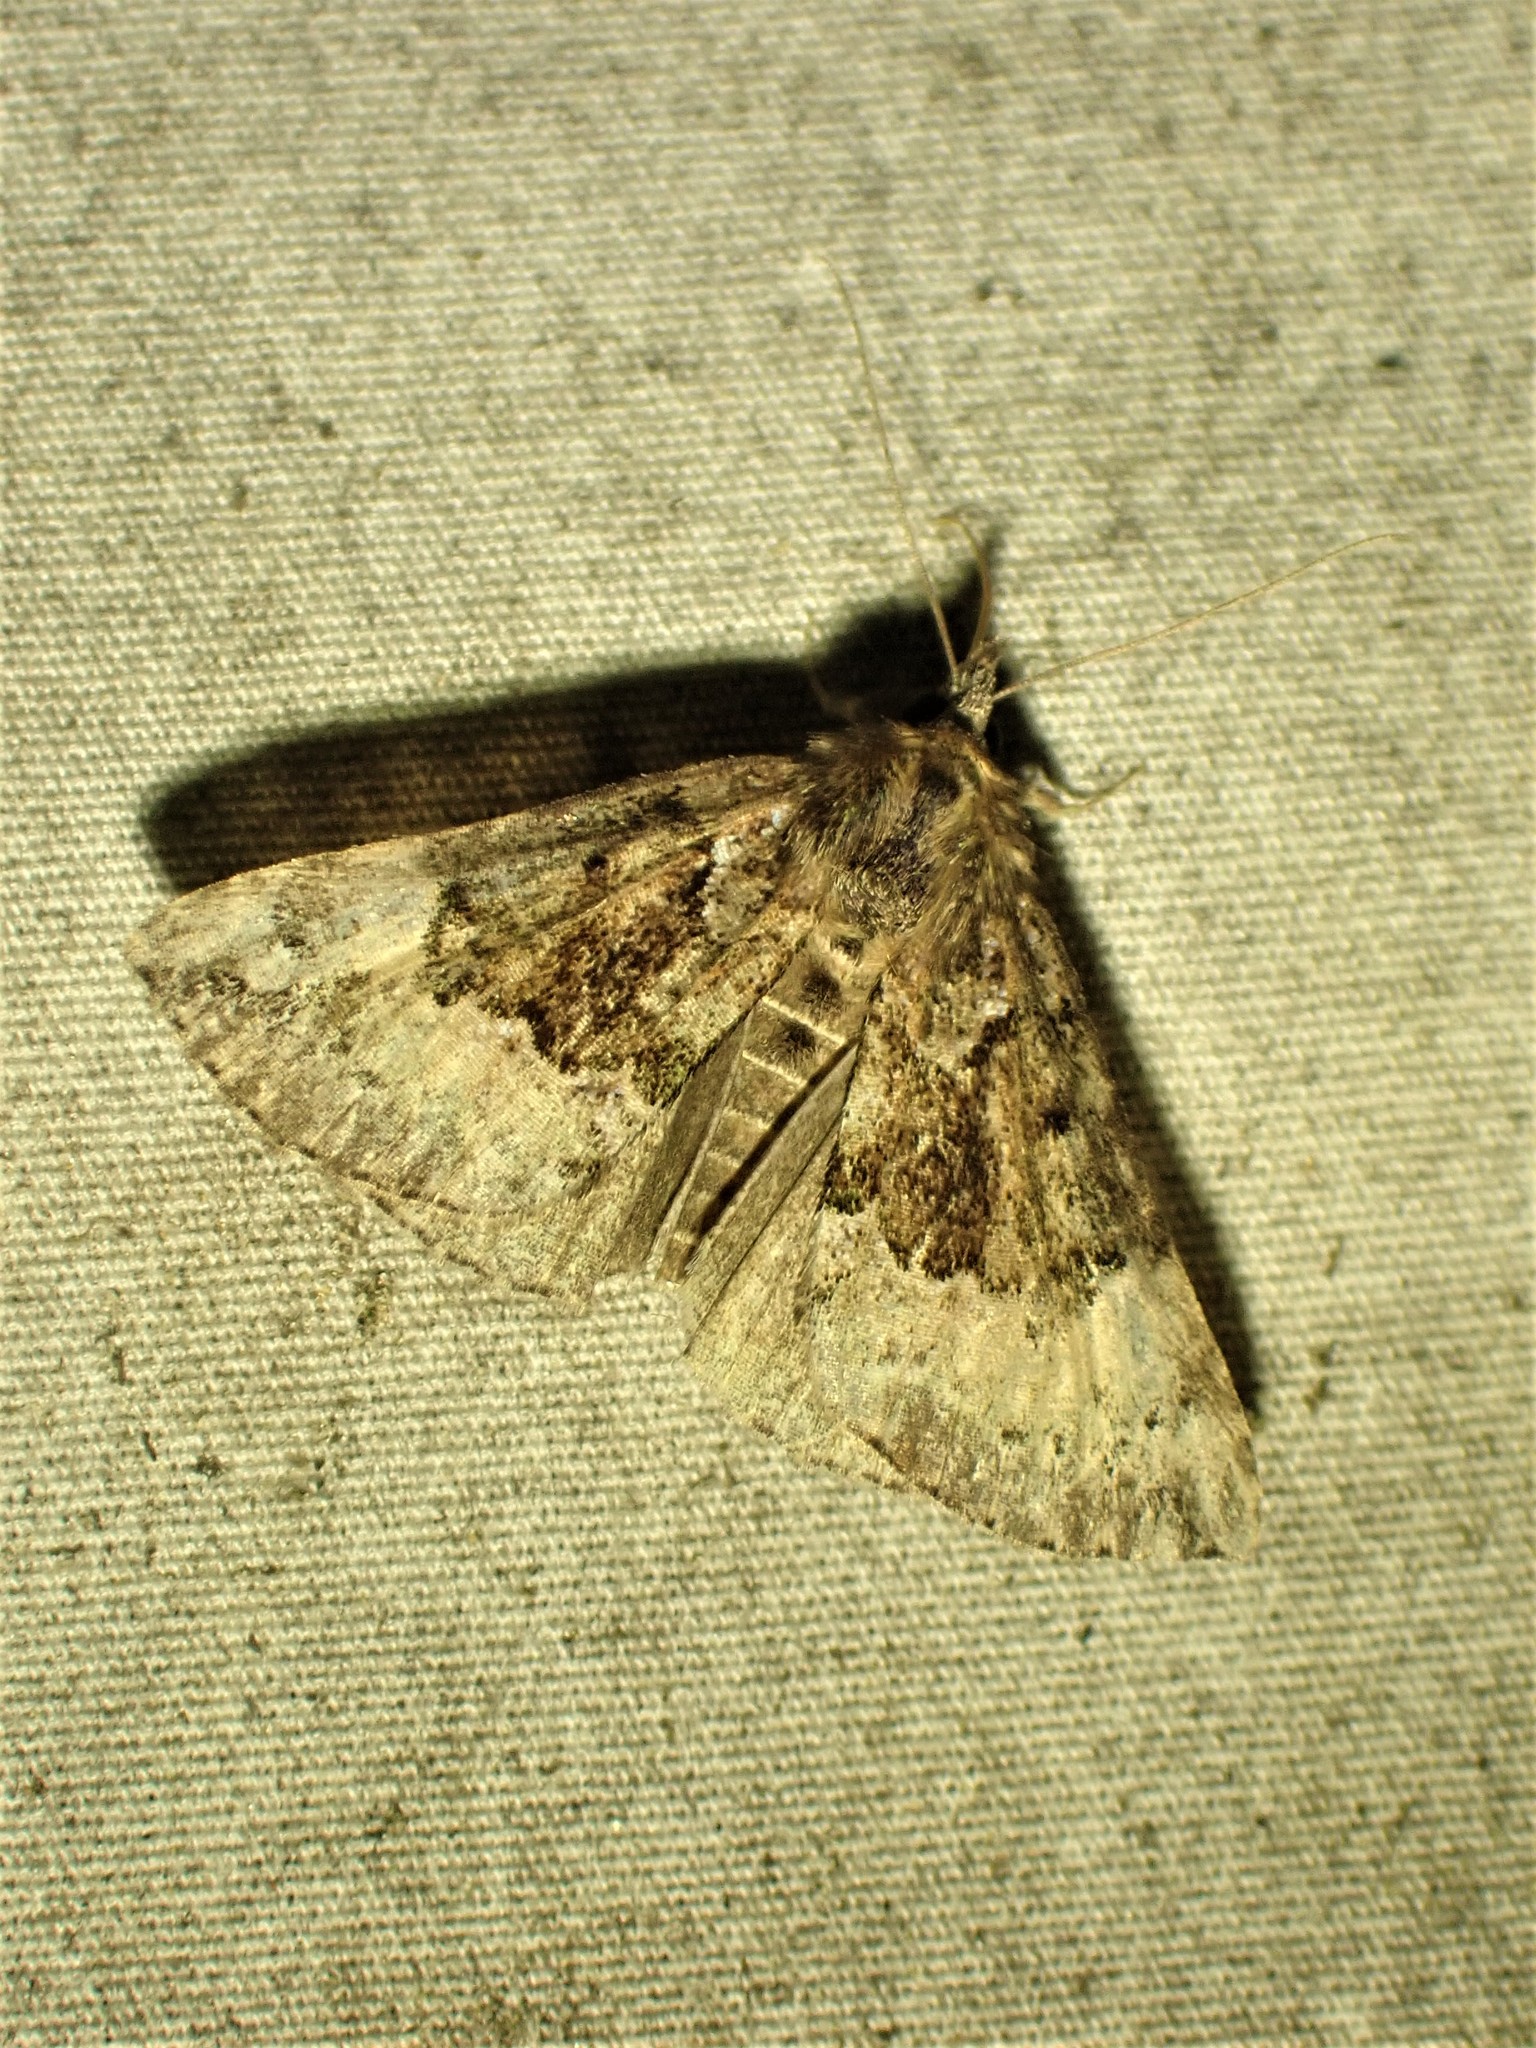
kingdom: Animalia
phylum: Arthropoda
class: Insecta
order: Lepidoptera
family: Erebidae
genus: Hypena
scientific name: Hypena palparia
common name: Mottled bomolocha moth
